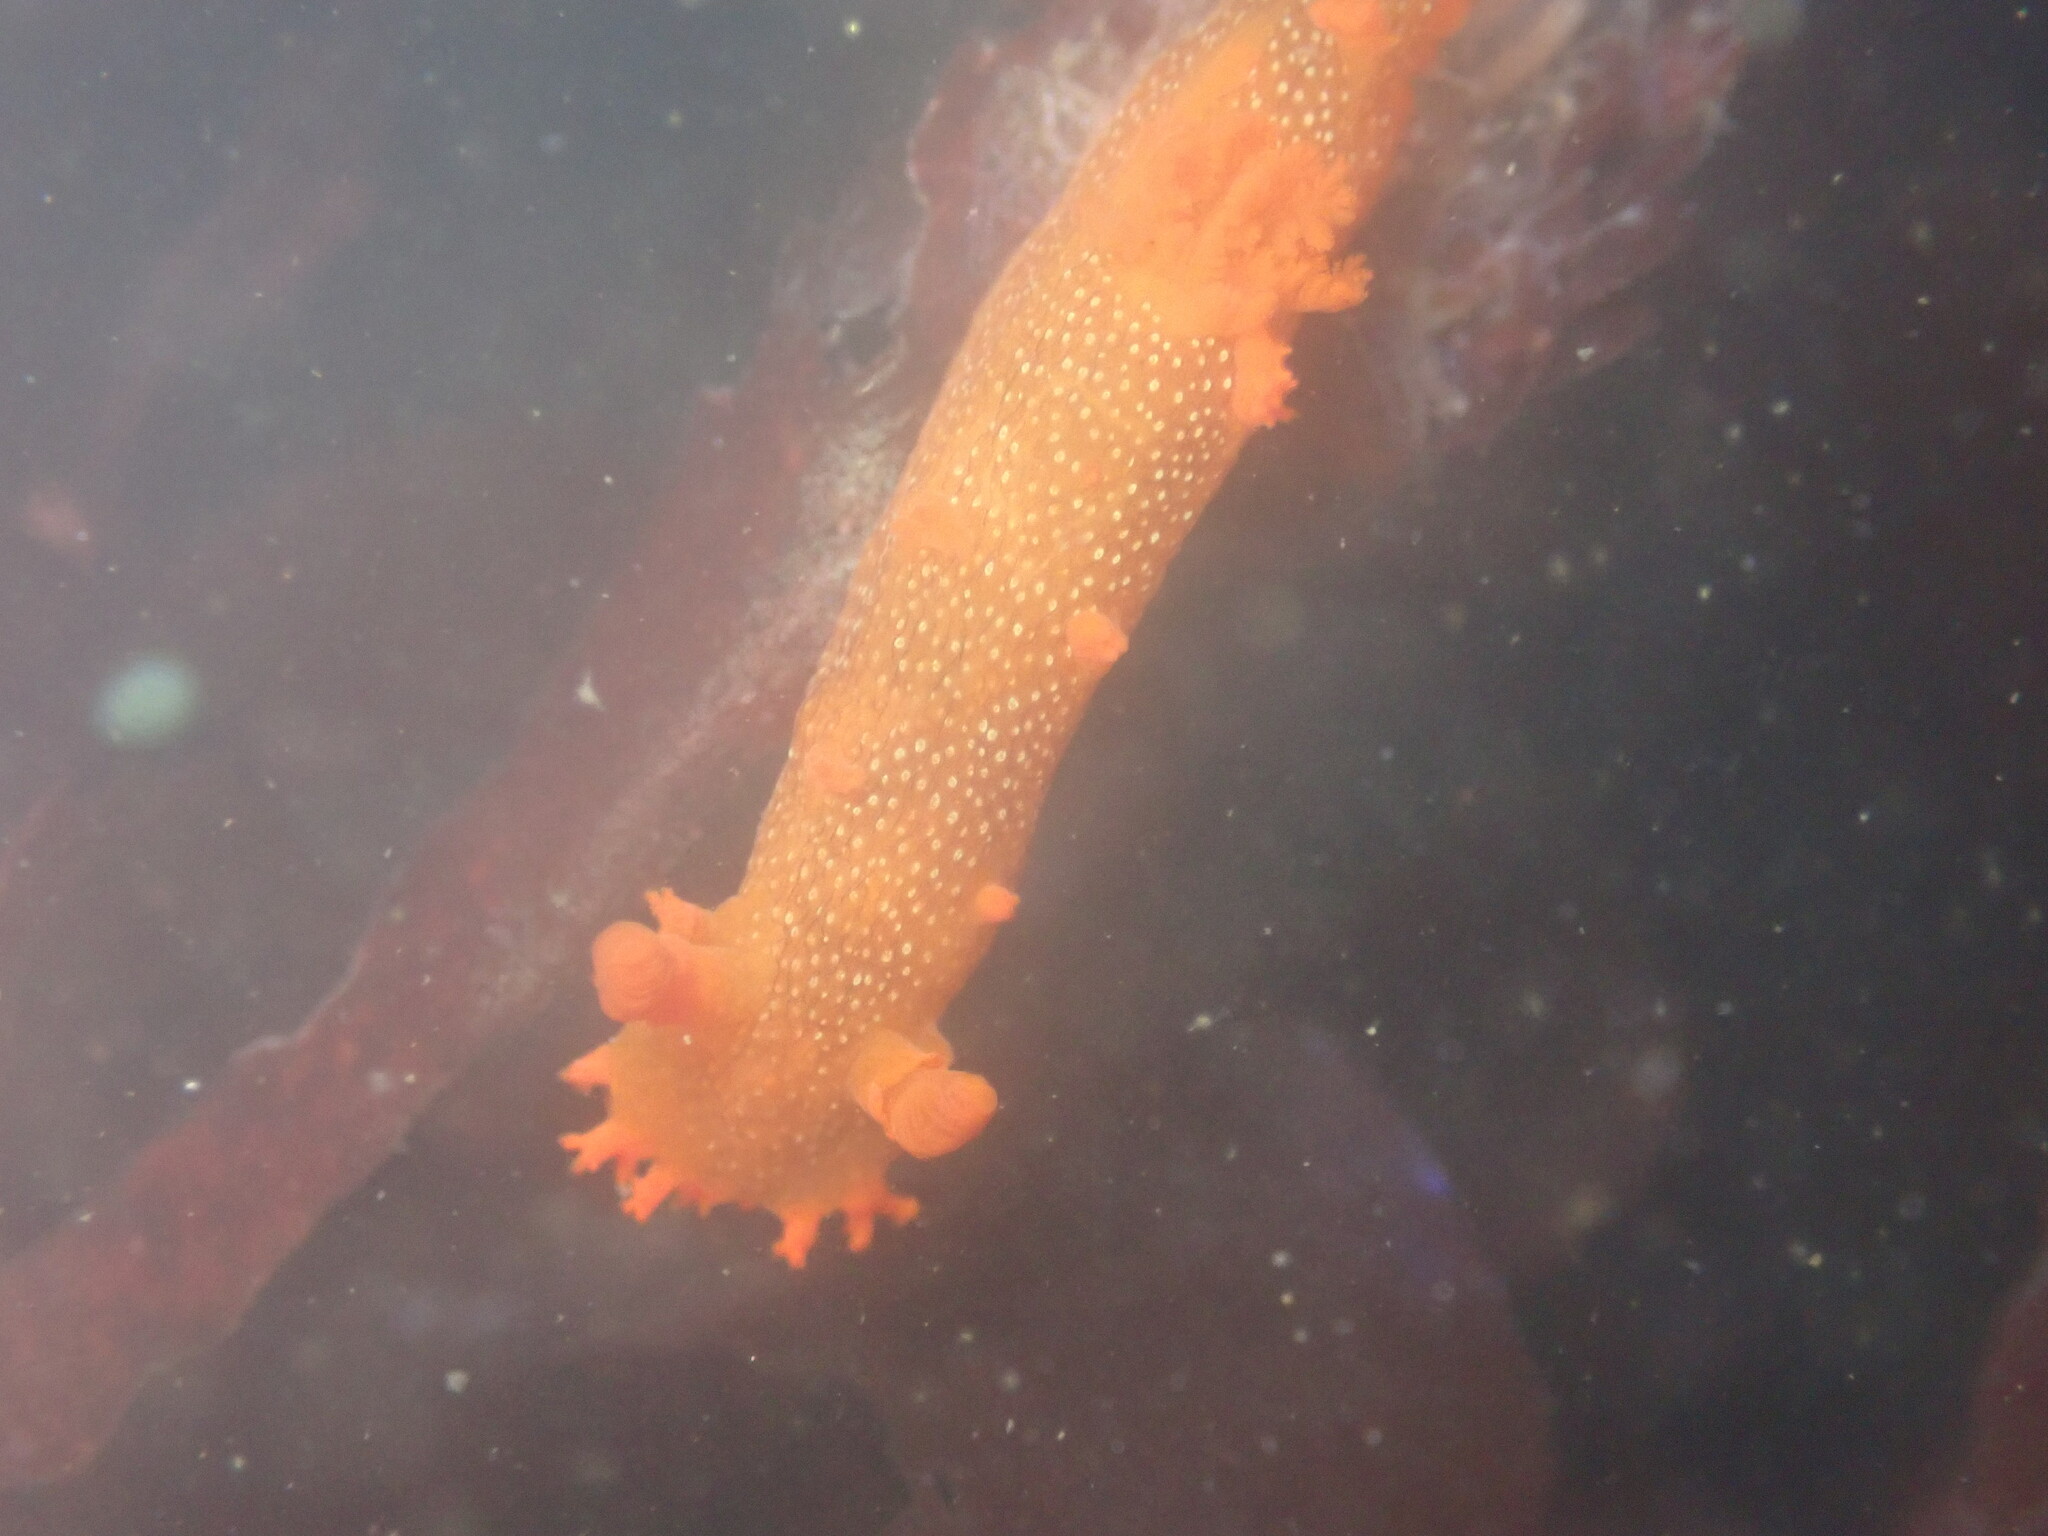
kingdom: Animalia
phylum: Mollusca
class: Gastropoda
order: Nudibranchia
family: Polyceridae
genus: Triopha
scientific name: Triopha maculata
